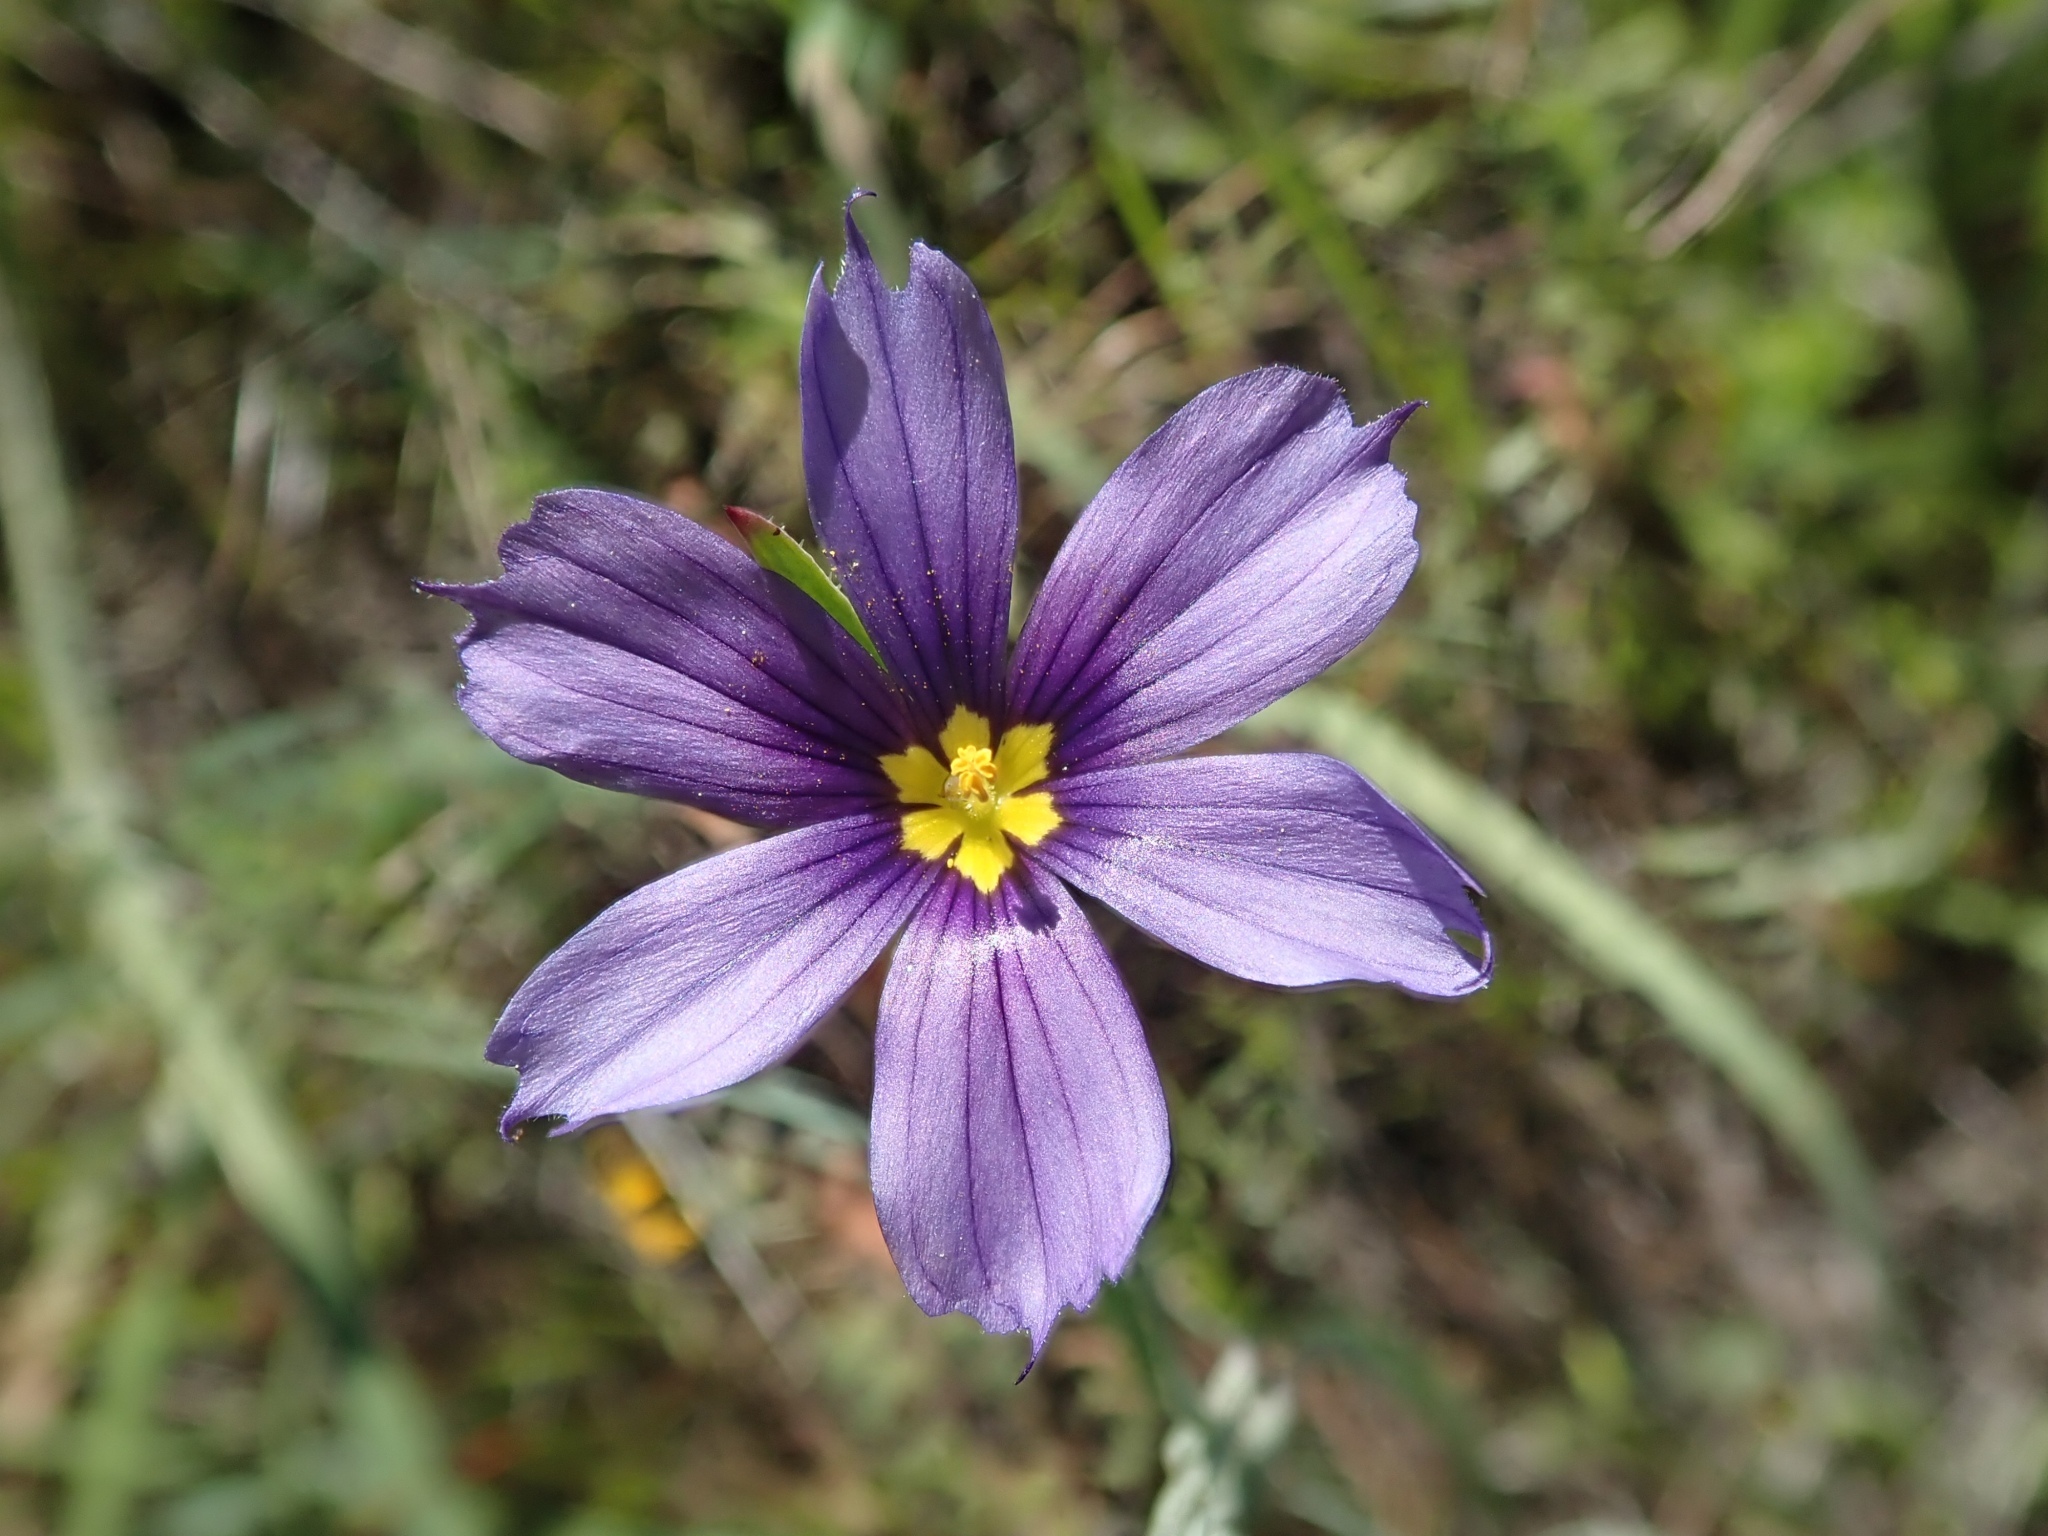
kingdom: Plantae
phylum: Tracheophyta
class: Liliopsida
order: Asparagales
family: Iridaceae
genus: Sisyrinchium
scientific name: Sisyrinchium bellum
